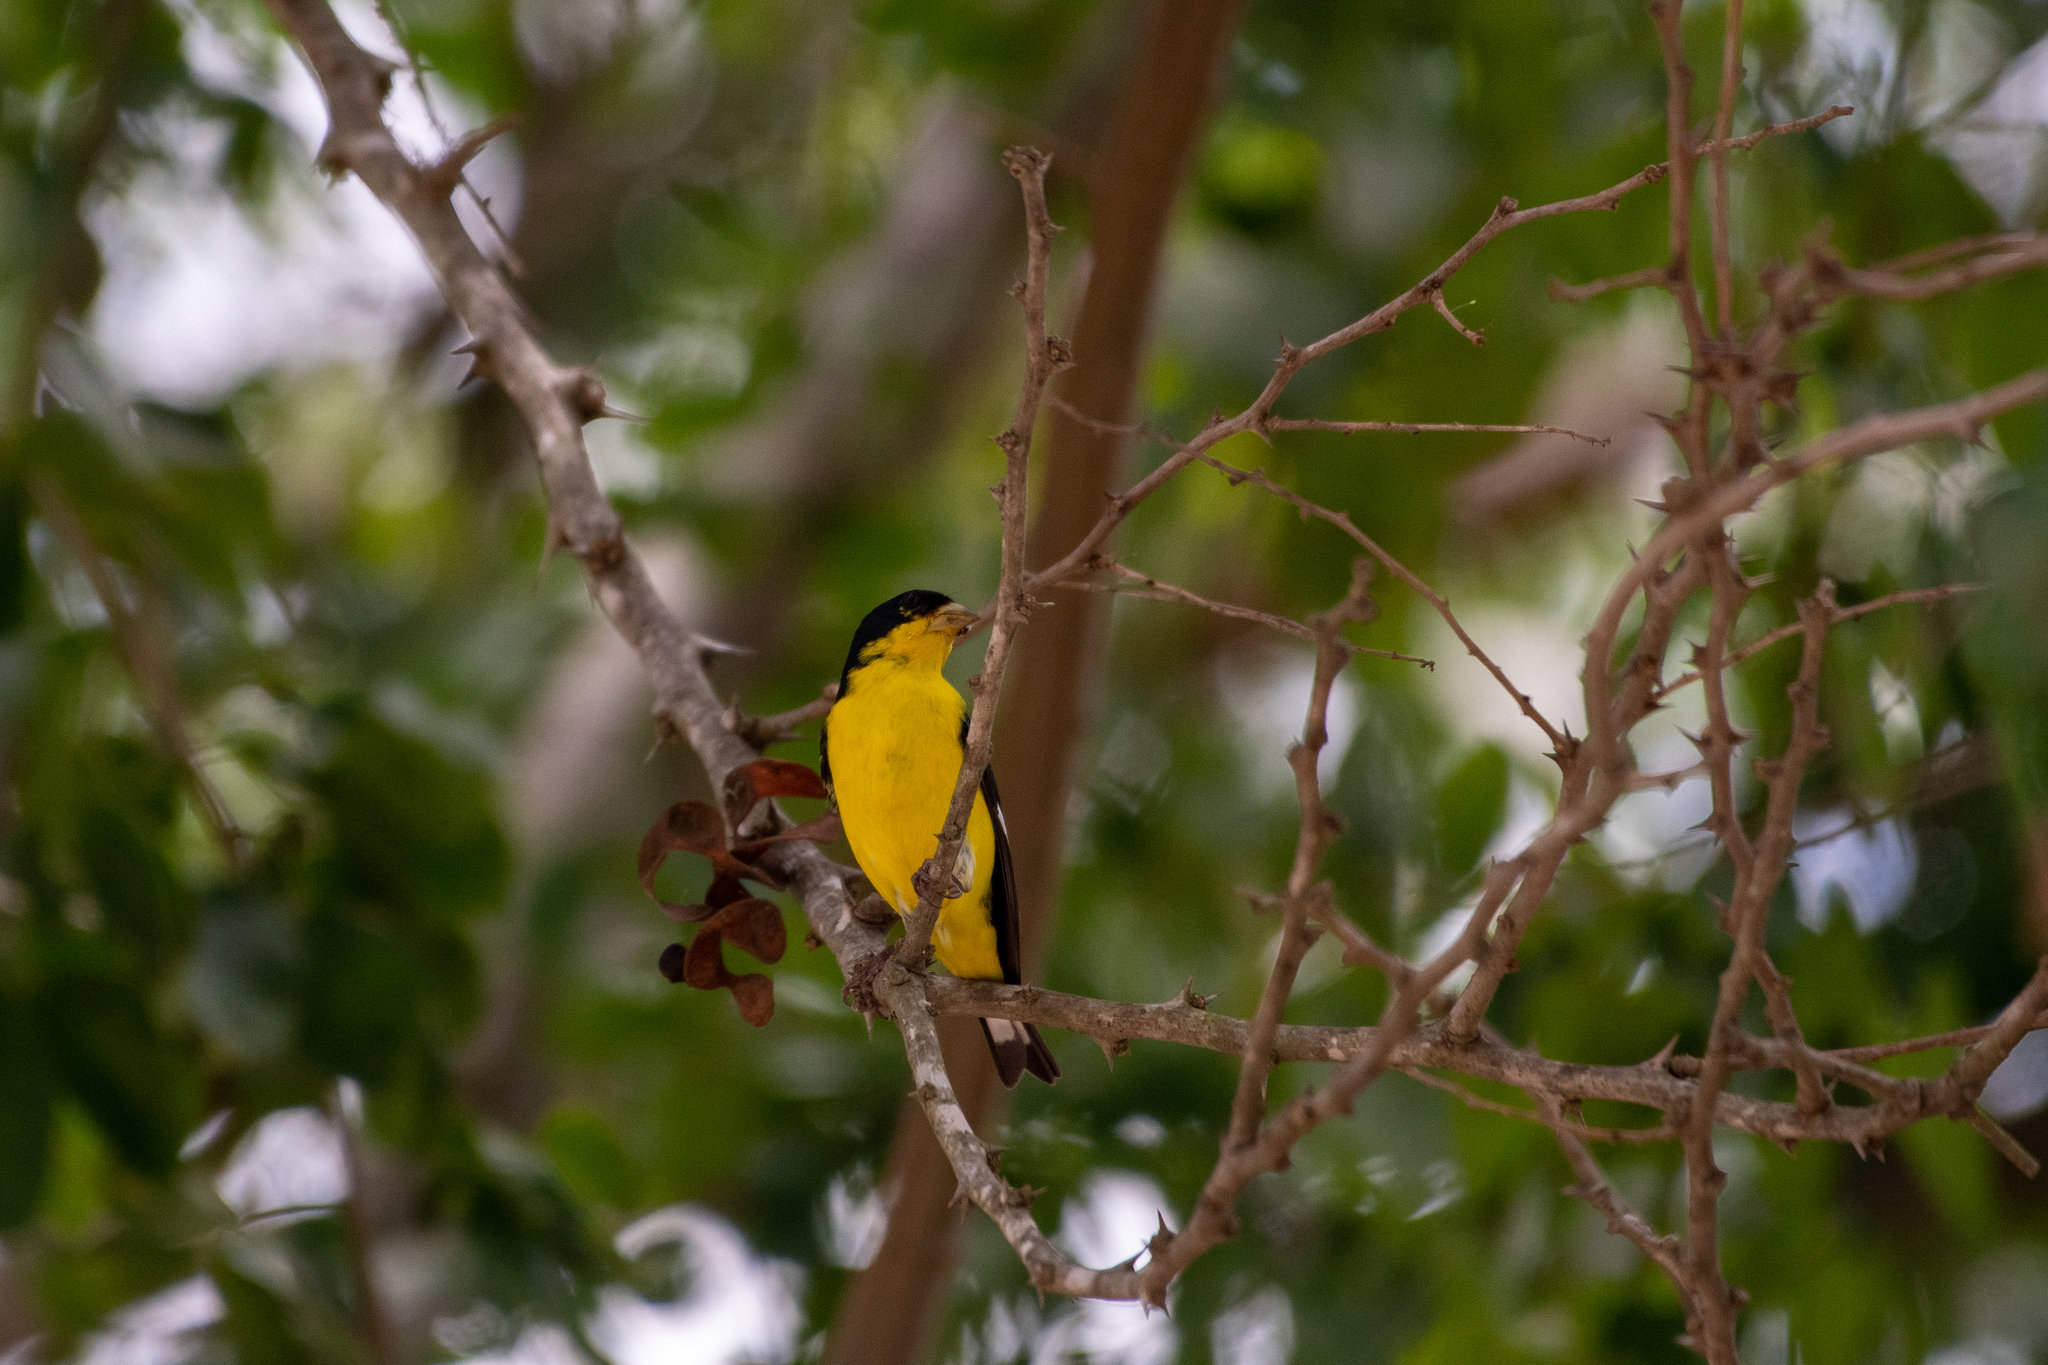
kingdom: Animalia
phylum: Chordata
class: Aves
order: Passeriformes
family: Fringillidae
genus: Spinus
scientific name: Spinus psaltria
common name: Lesser goldfinch
